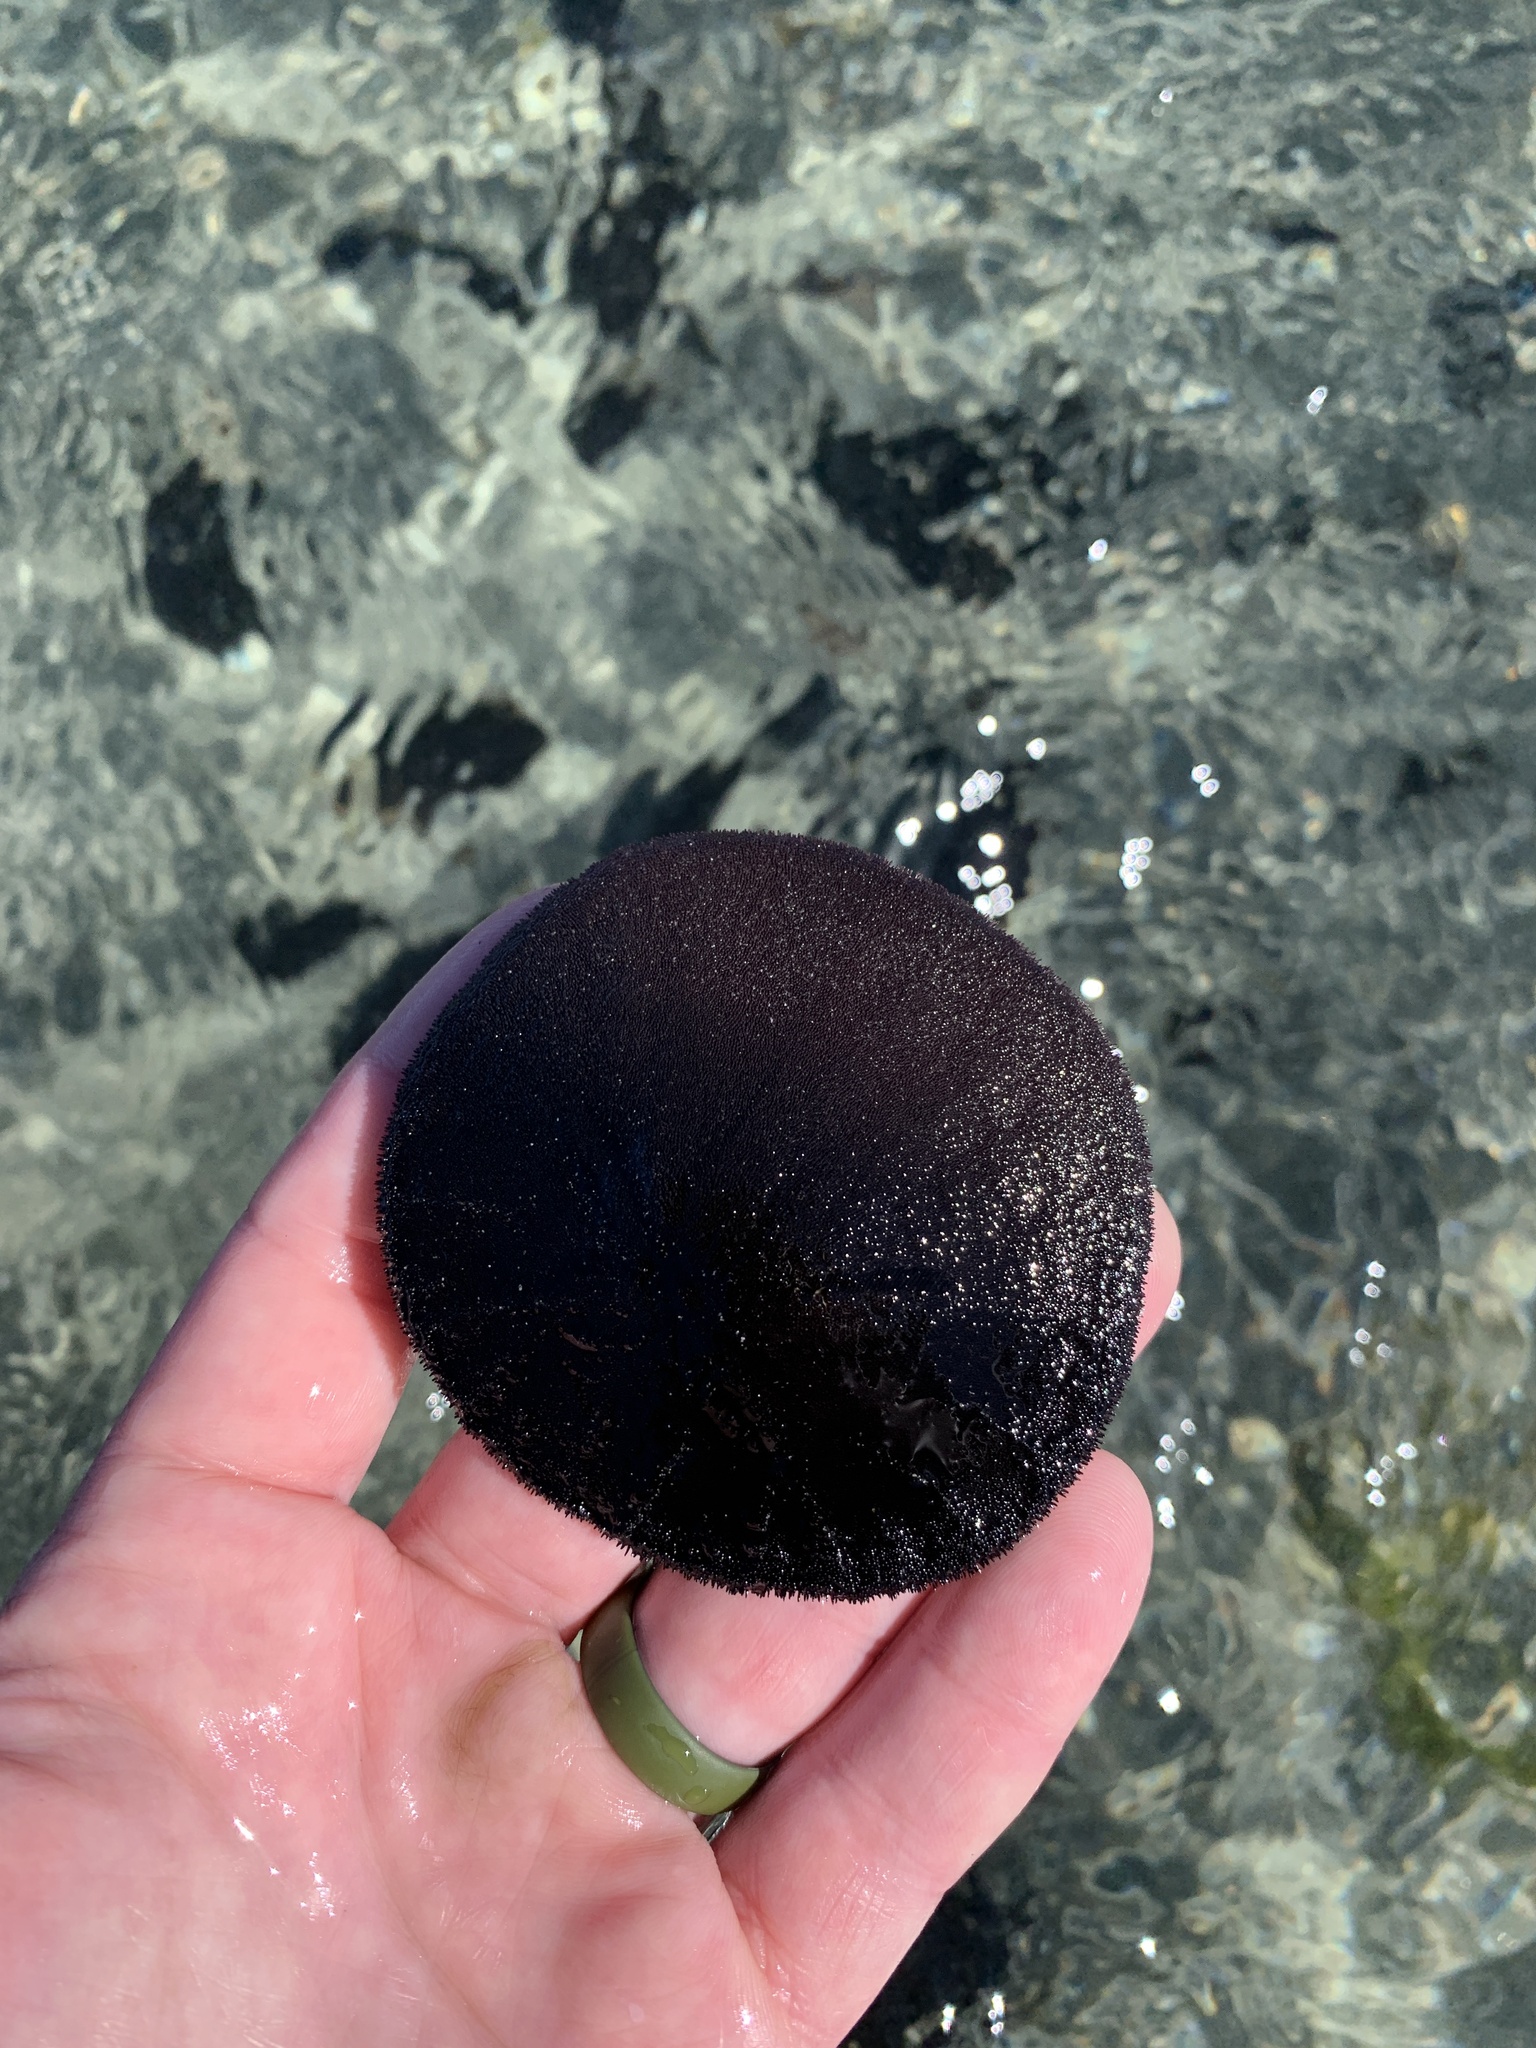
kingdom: Animalia
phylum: Echinodermata
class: Echinoidea
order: Echinolampadacea
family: Dendrasteridae
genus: Dendraster
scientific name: Dendraster excentricus
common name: Eccentric sand dollar sea urchin
